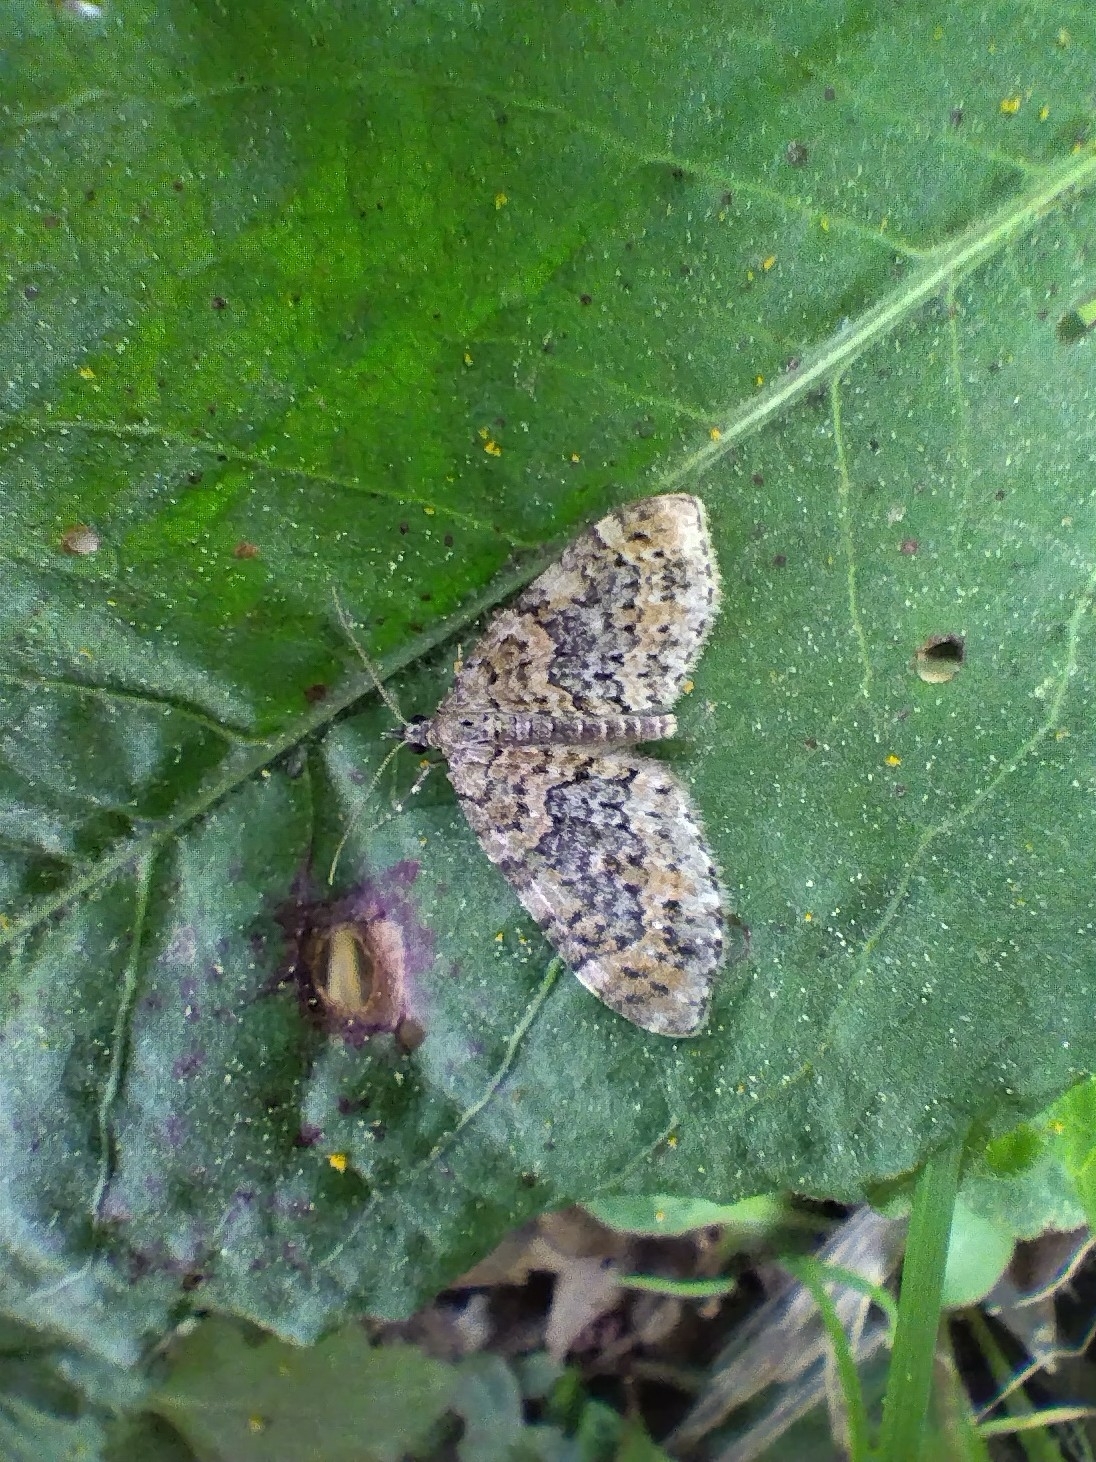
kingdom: Animalia
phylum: Arthropoda
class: Insecta
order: Lepidoptera
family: Geometridae
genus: Acasis
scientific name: Acasis viretata
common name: Yellow-barred brindle
